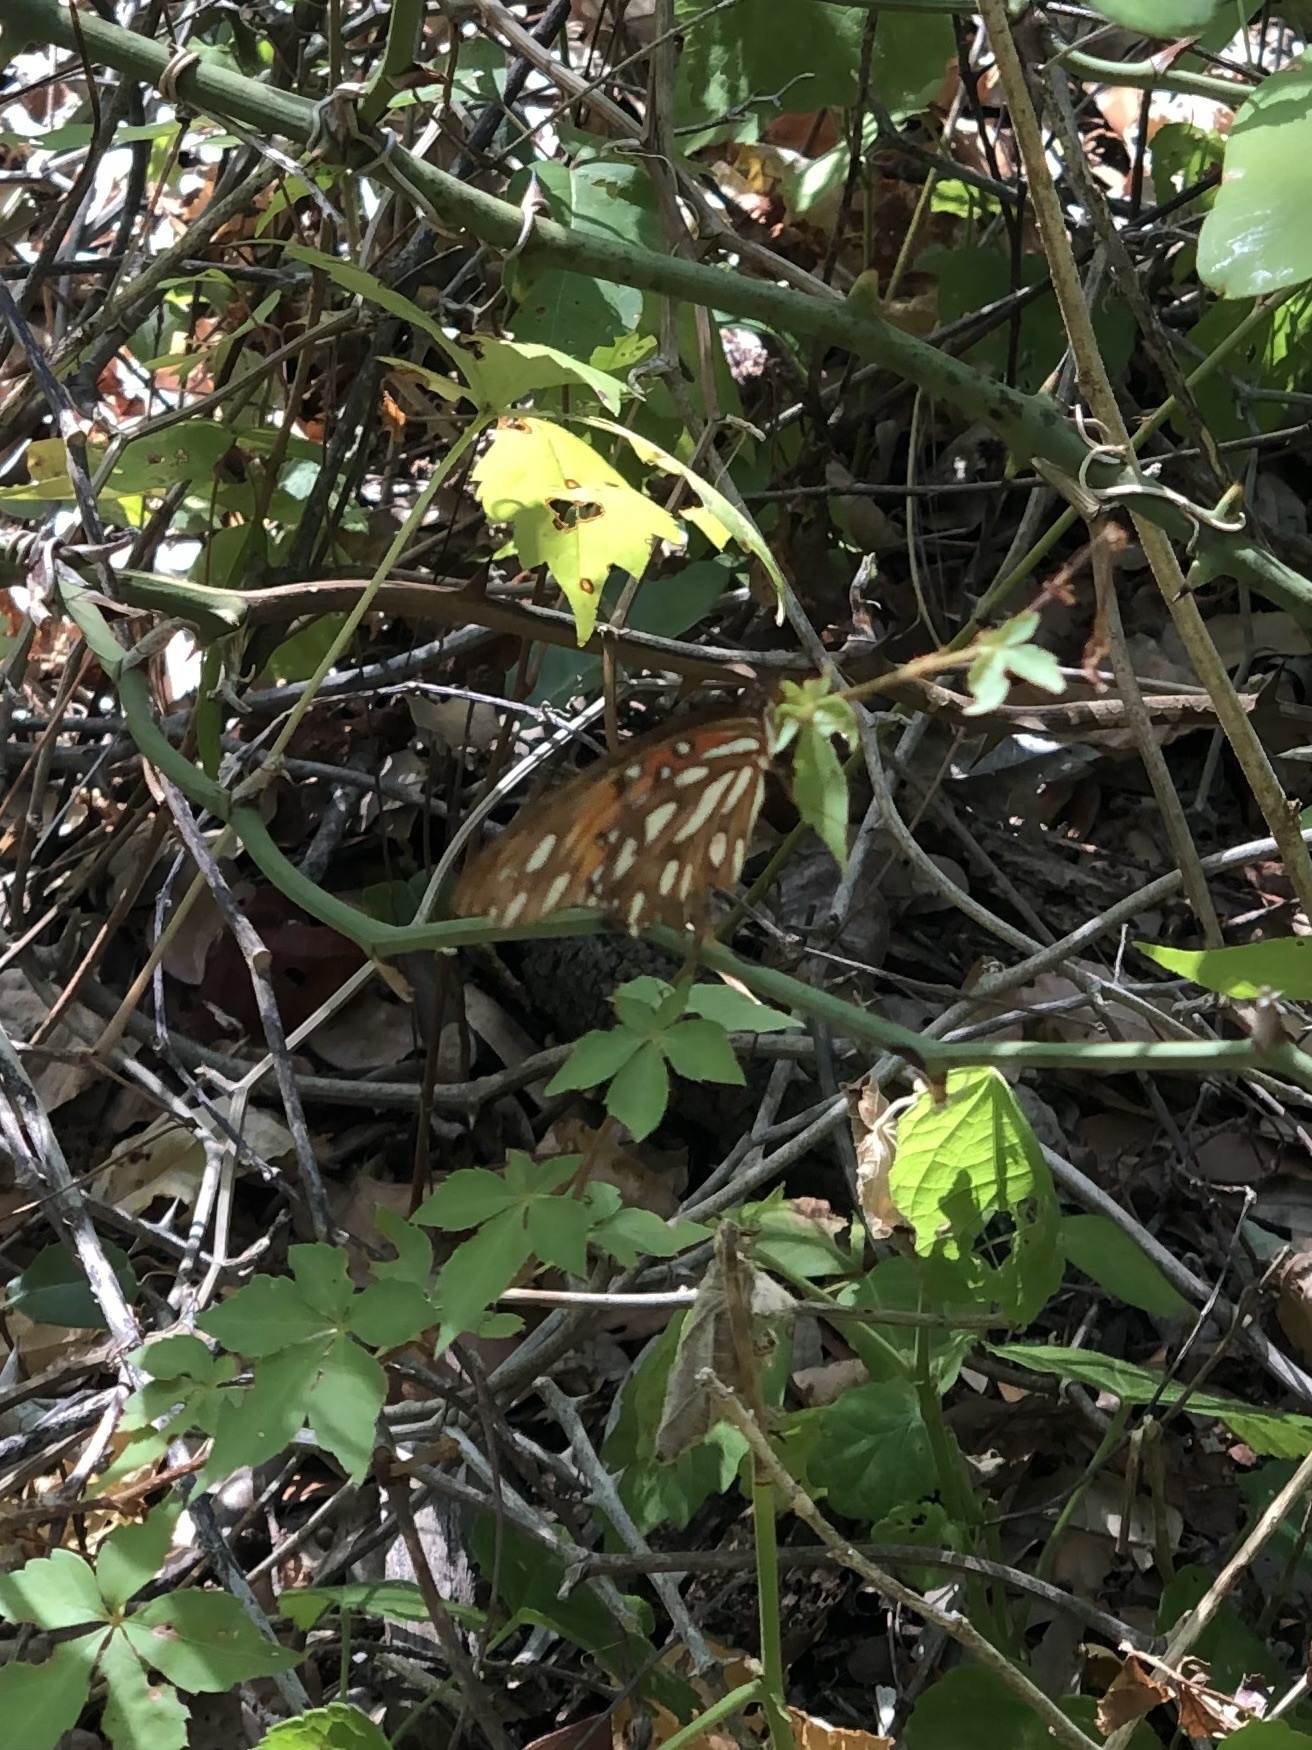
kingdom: Animalia
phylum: Arthropoda
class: Insecta
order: Lepidoptera
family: Nymphalidae
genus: Dione
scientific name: Dione vanillae
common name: Gulf fritillary
